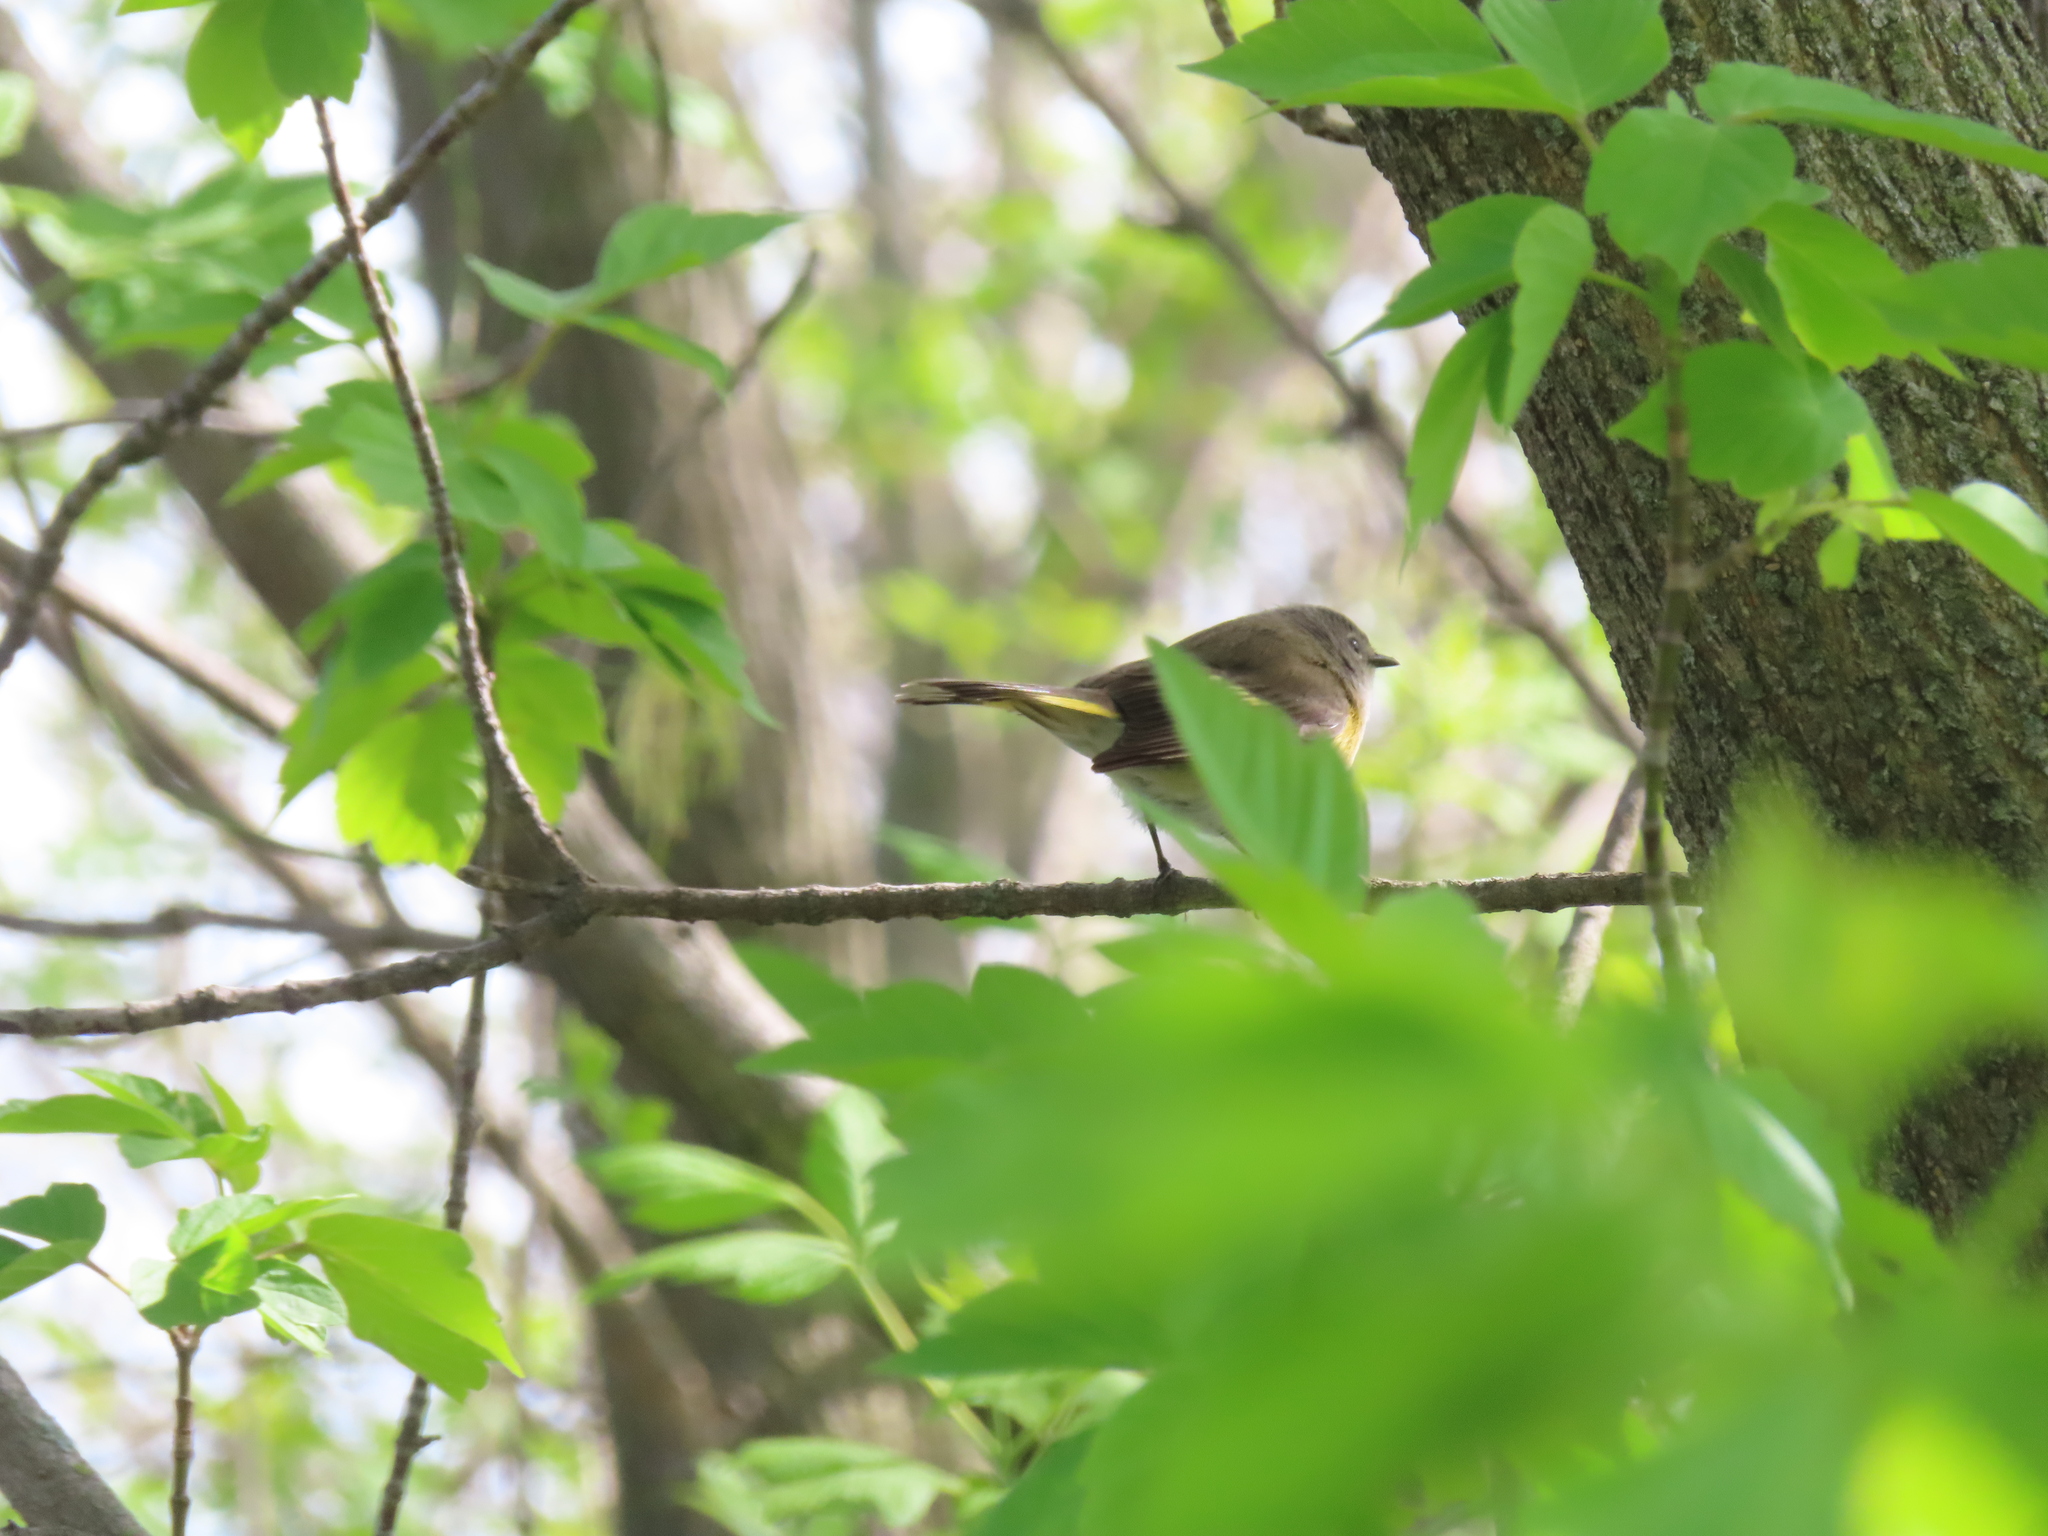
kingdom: Animalia
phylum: Chordata
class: Aves
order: Passeriformes
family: Parulidae
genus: Setophaga
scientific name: Setophaga ruticilla
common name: American redstart
